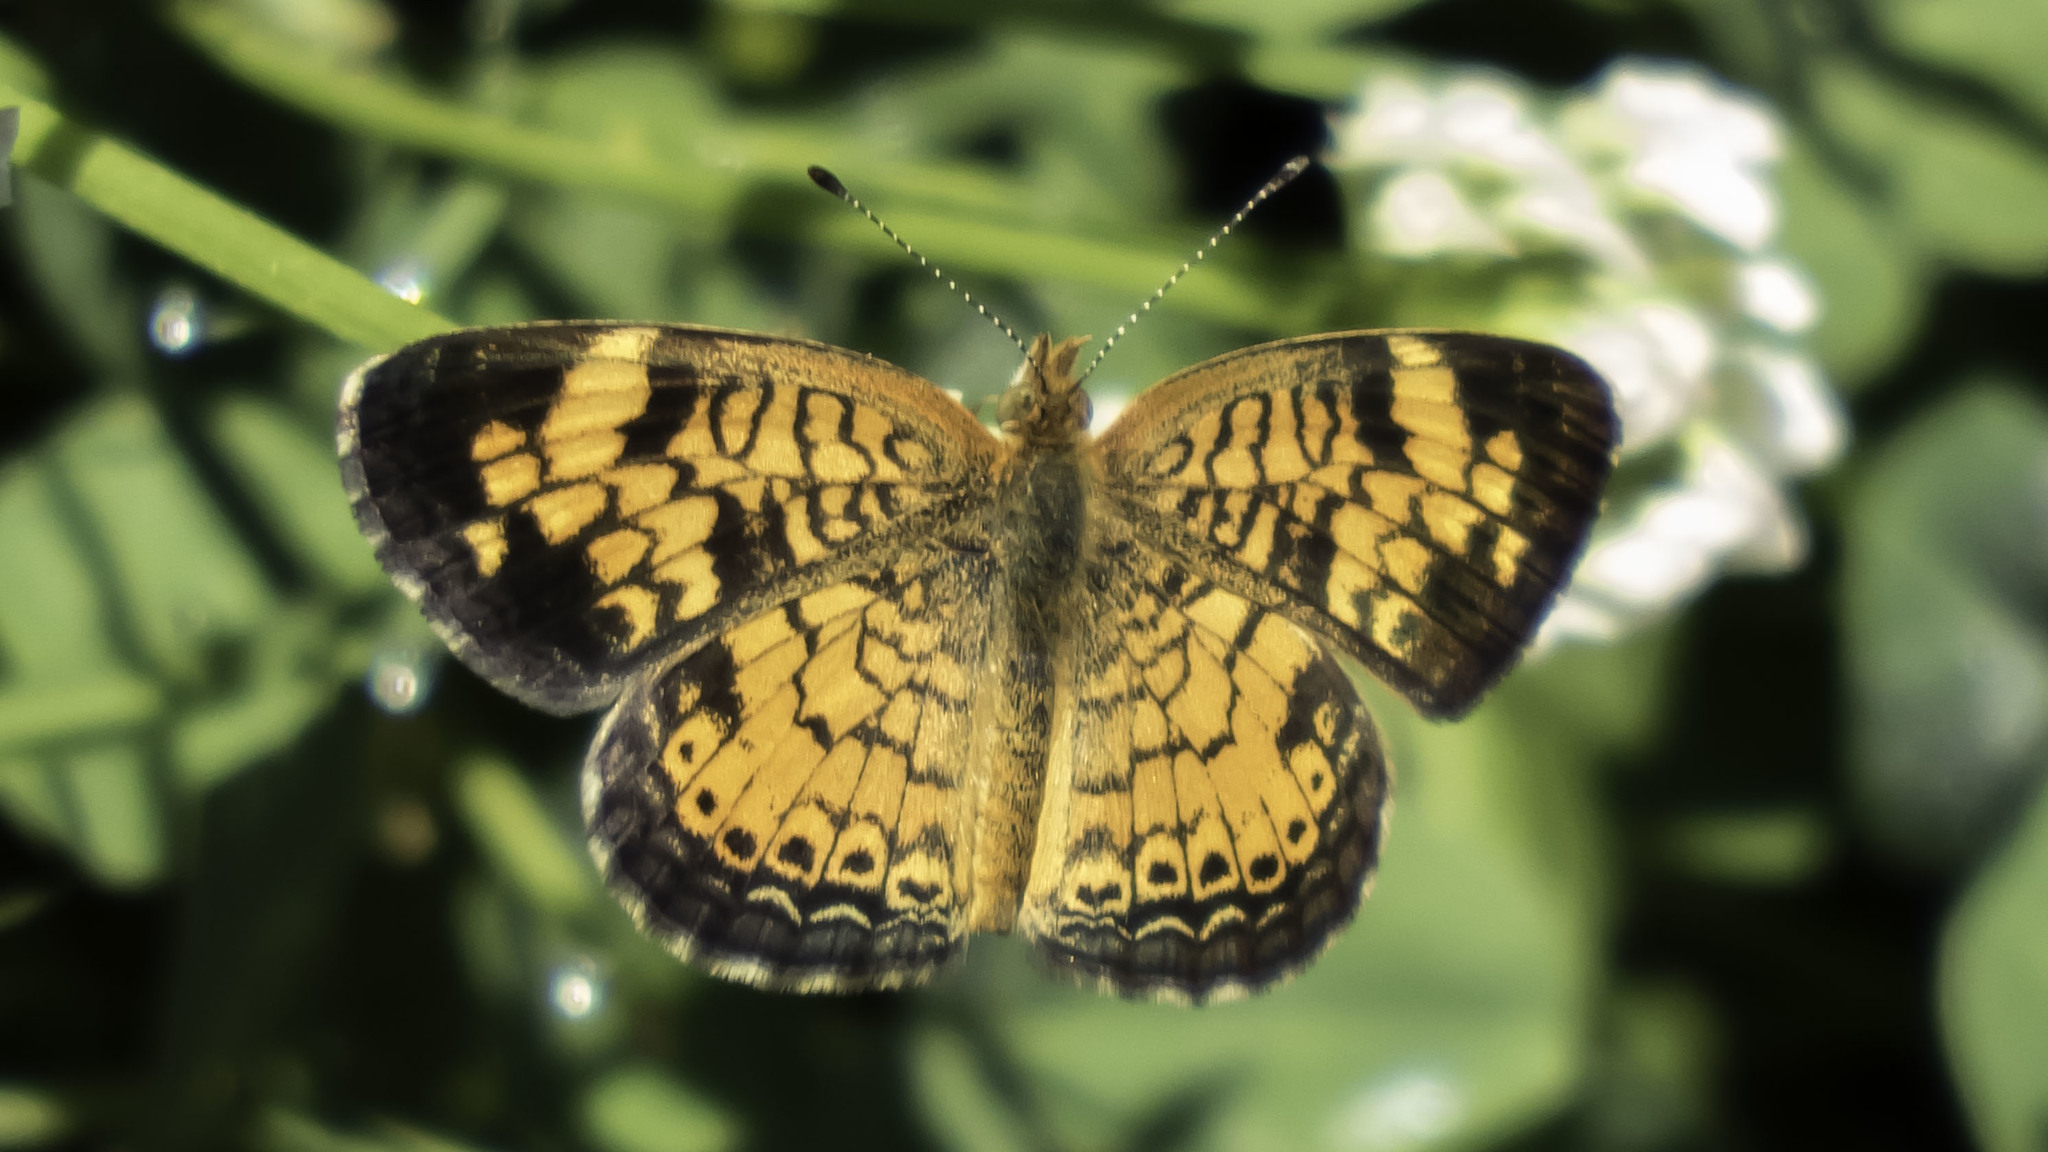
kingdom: Animalia
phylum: Arthropoda
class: Insecta
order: Lepidoptera
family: Nymphalidae
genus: Phyciodes
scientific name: Phyciodes tharos
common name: Pearl crescent
